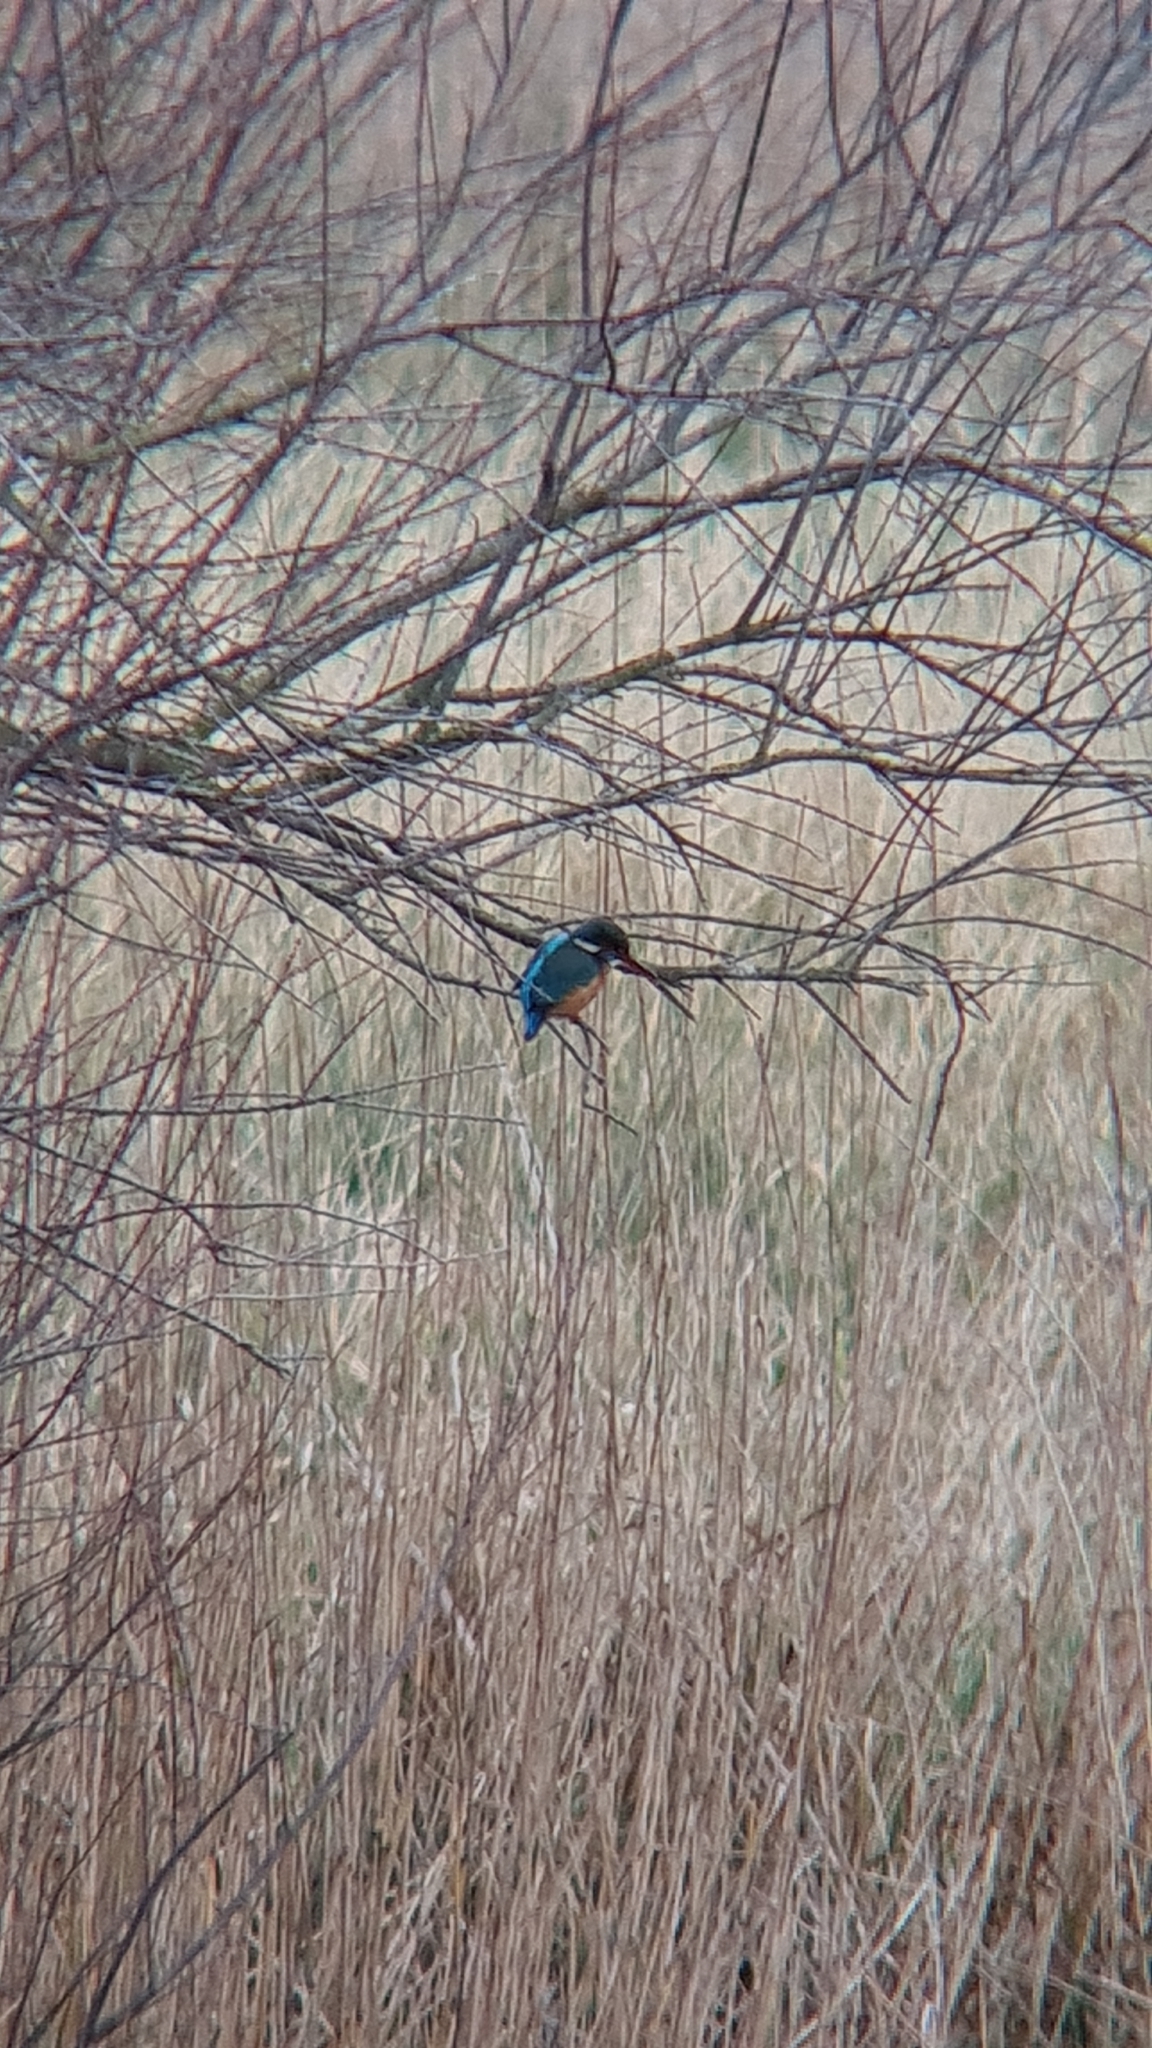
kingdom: Animalia
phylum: Chordata
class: Aves
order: Coraciiformes
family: Alcedinidae
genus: Alcedo
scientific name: Alcedo atthis
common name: Common kingfisher
